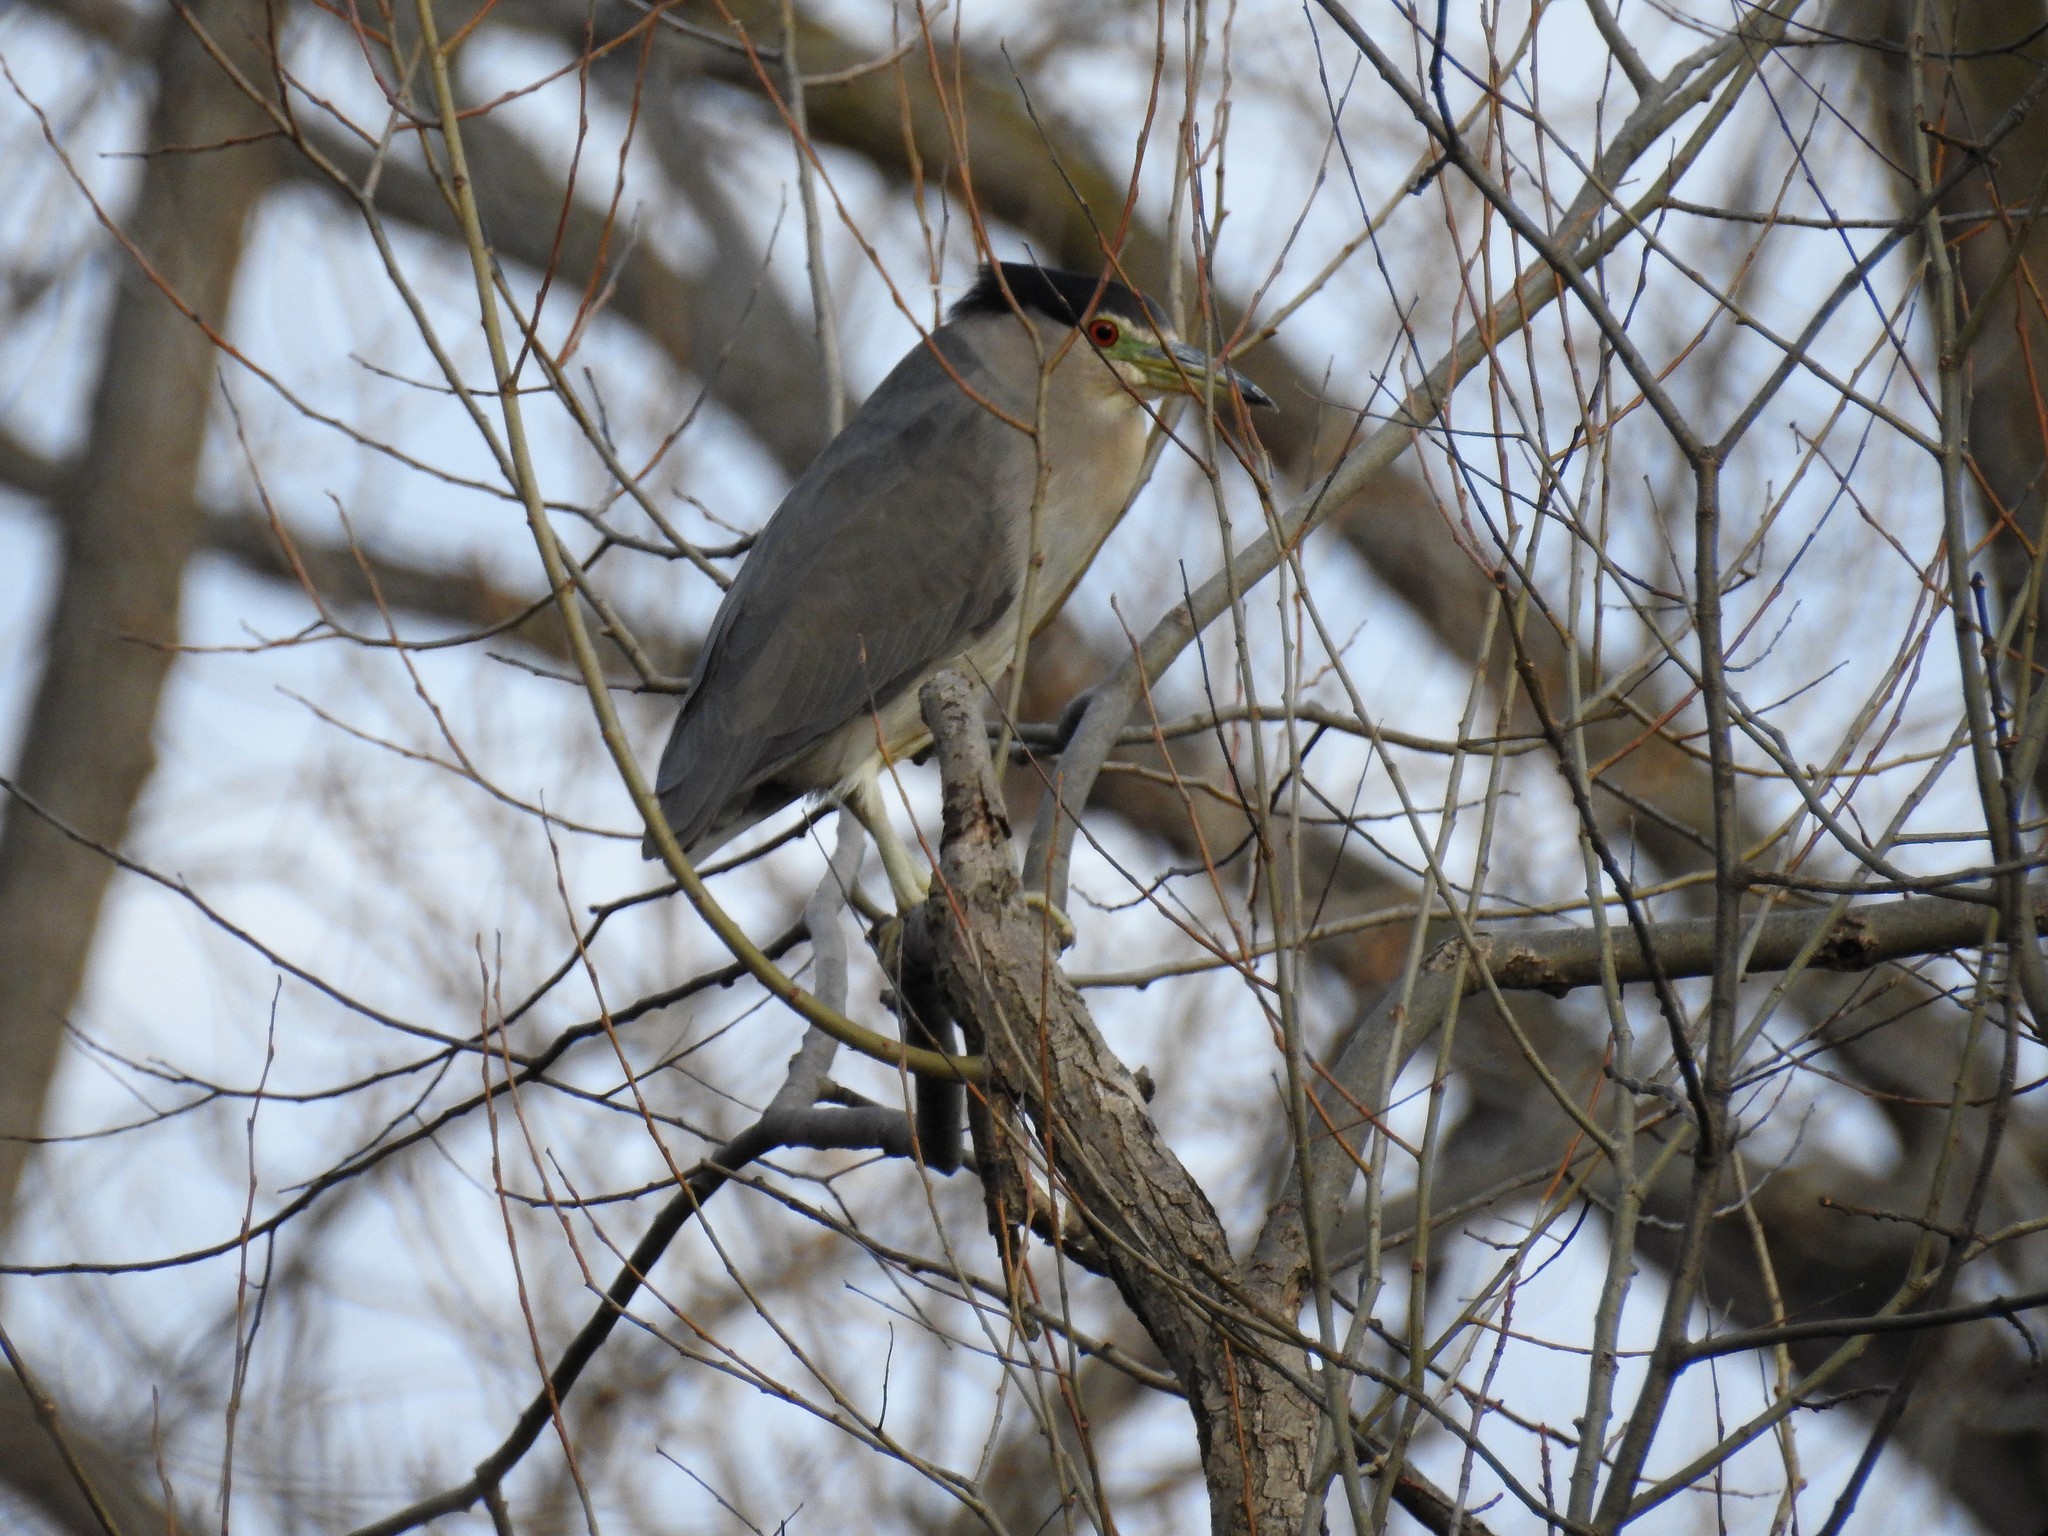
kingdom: Animalia
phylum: Chordata
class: Aves
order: Pelecaniformes
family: Ardeidae
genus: Nycticorax
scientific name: Nycticorax nycticorax
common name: Black-crowned night heron
